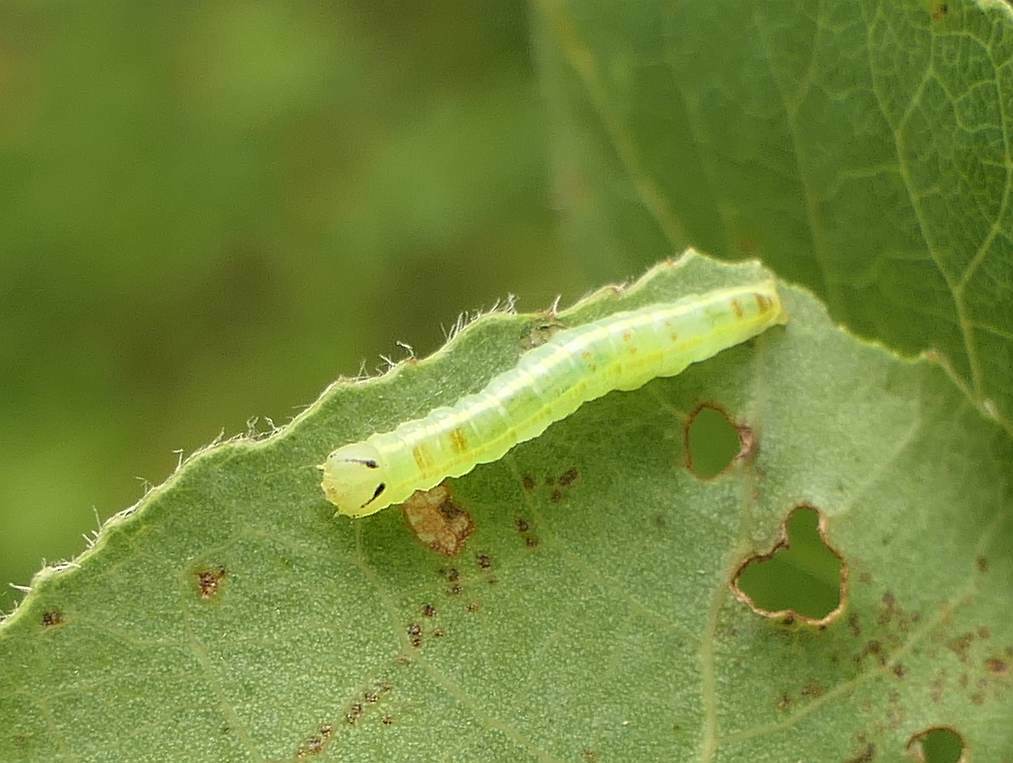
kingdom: Animalia
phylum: Arthropoda
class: Insecta
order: Lepidoptera
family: Notodontidae
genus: Gluphisia
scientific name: Gluphisia septentrionis
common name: Common gluphisia
